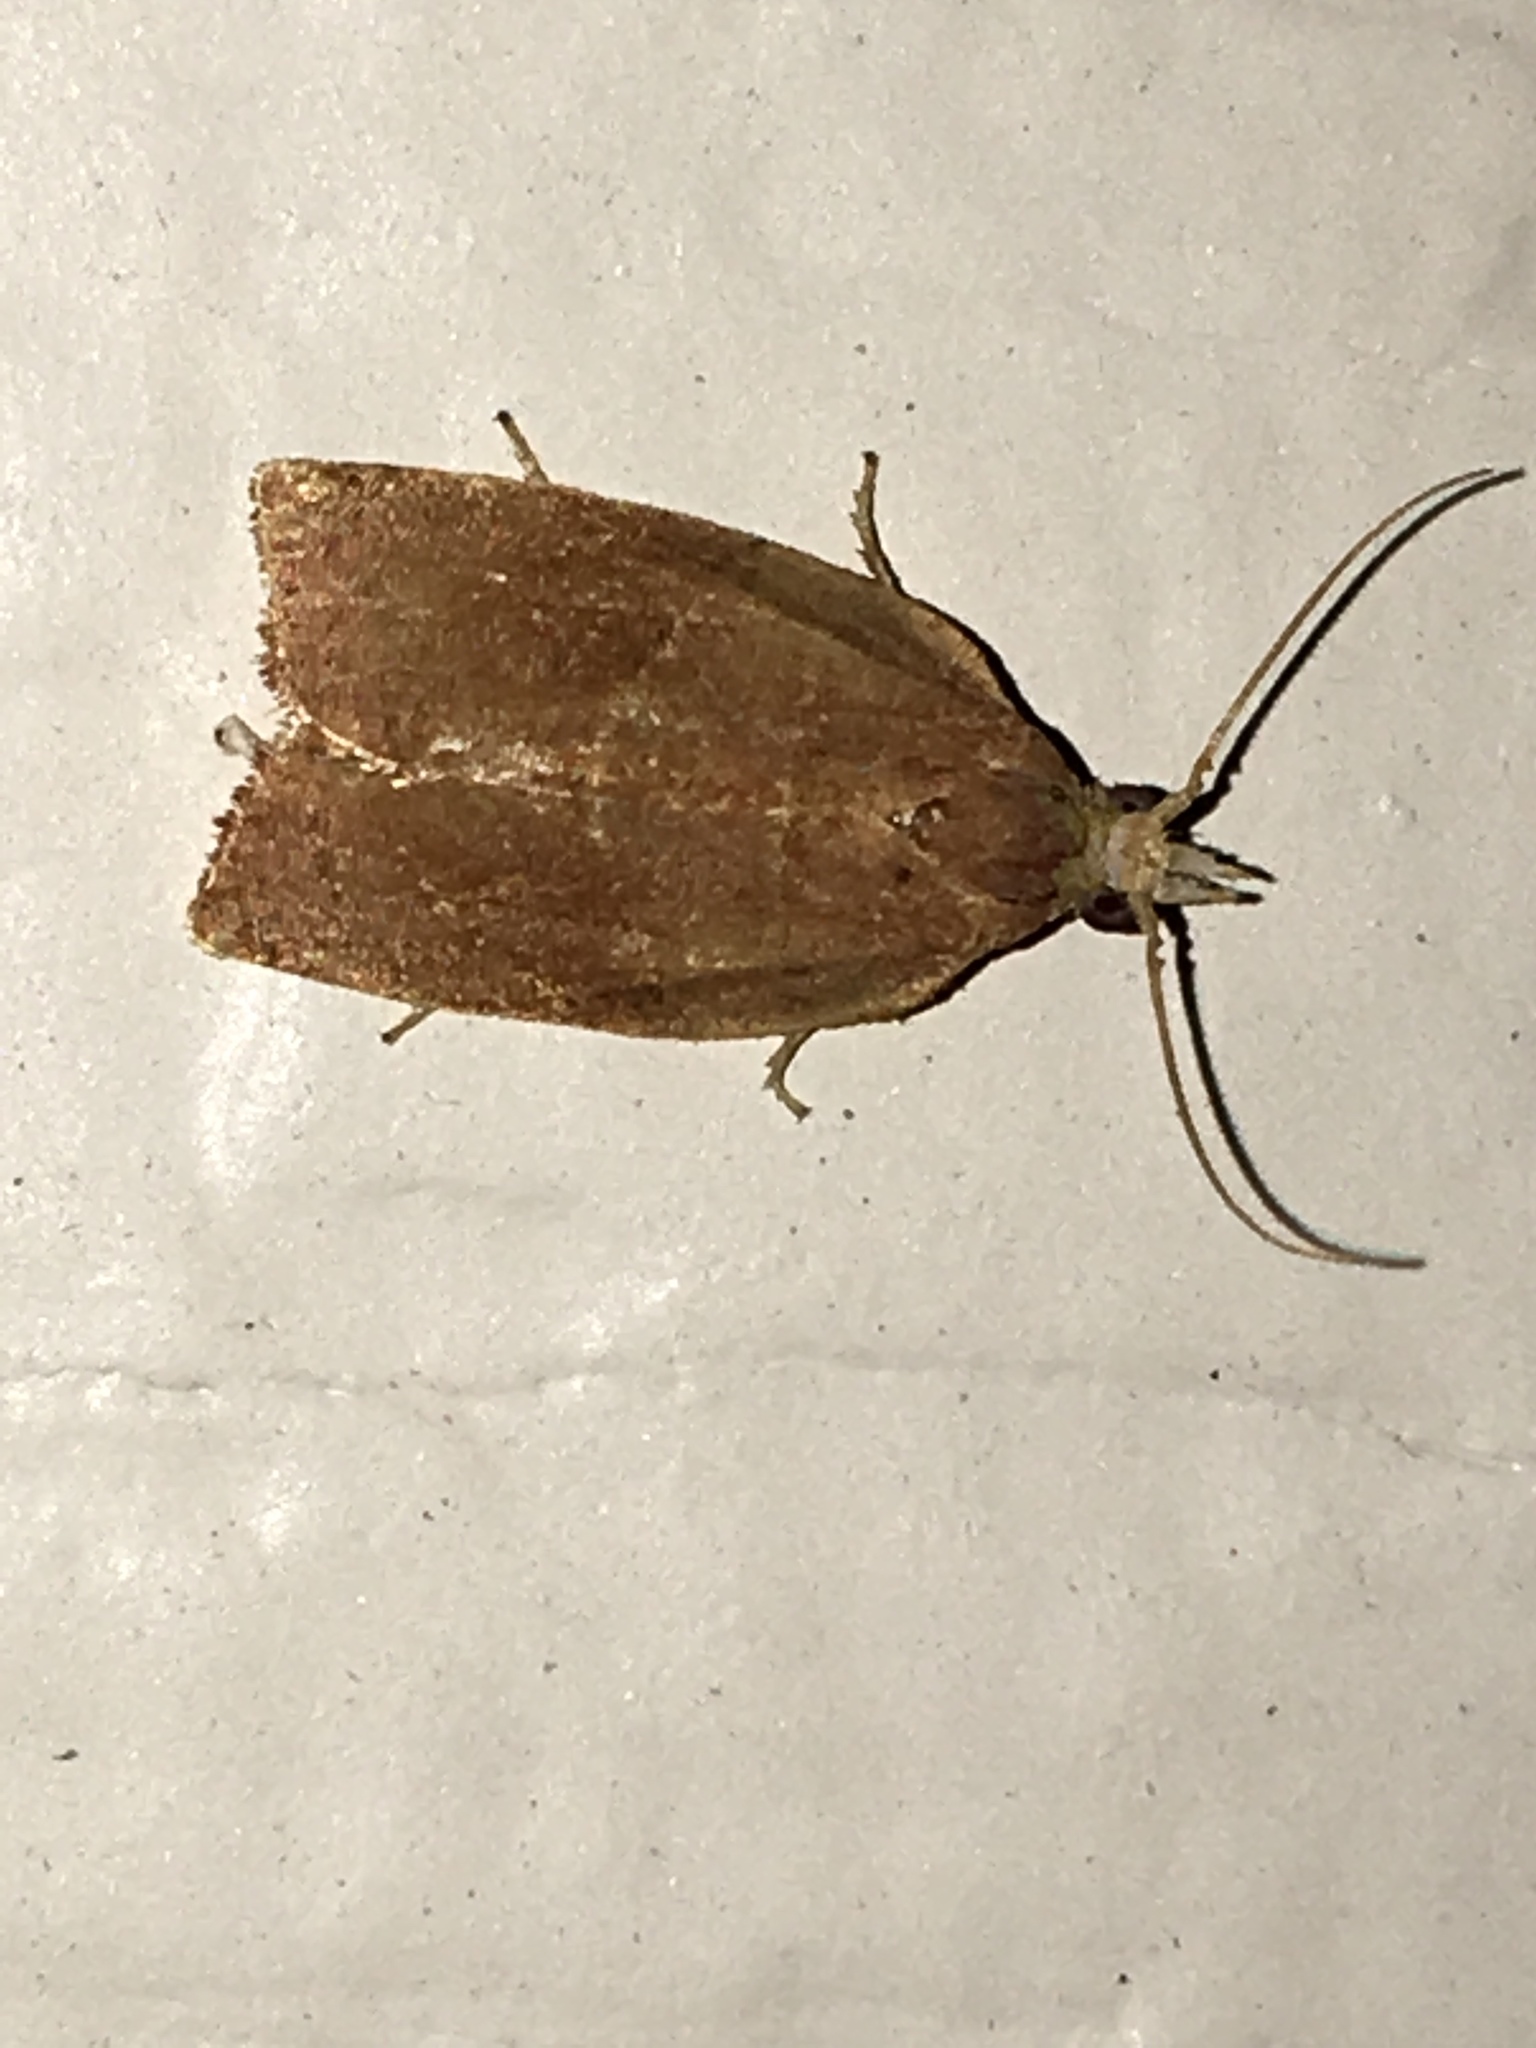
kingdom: Animalia
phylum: Arthropoda
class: Insecta
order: Lepidoptera
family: Tortricidae
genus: Pandemis
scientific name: Pandemis limitata
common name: Three-lined leafroller moth
